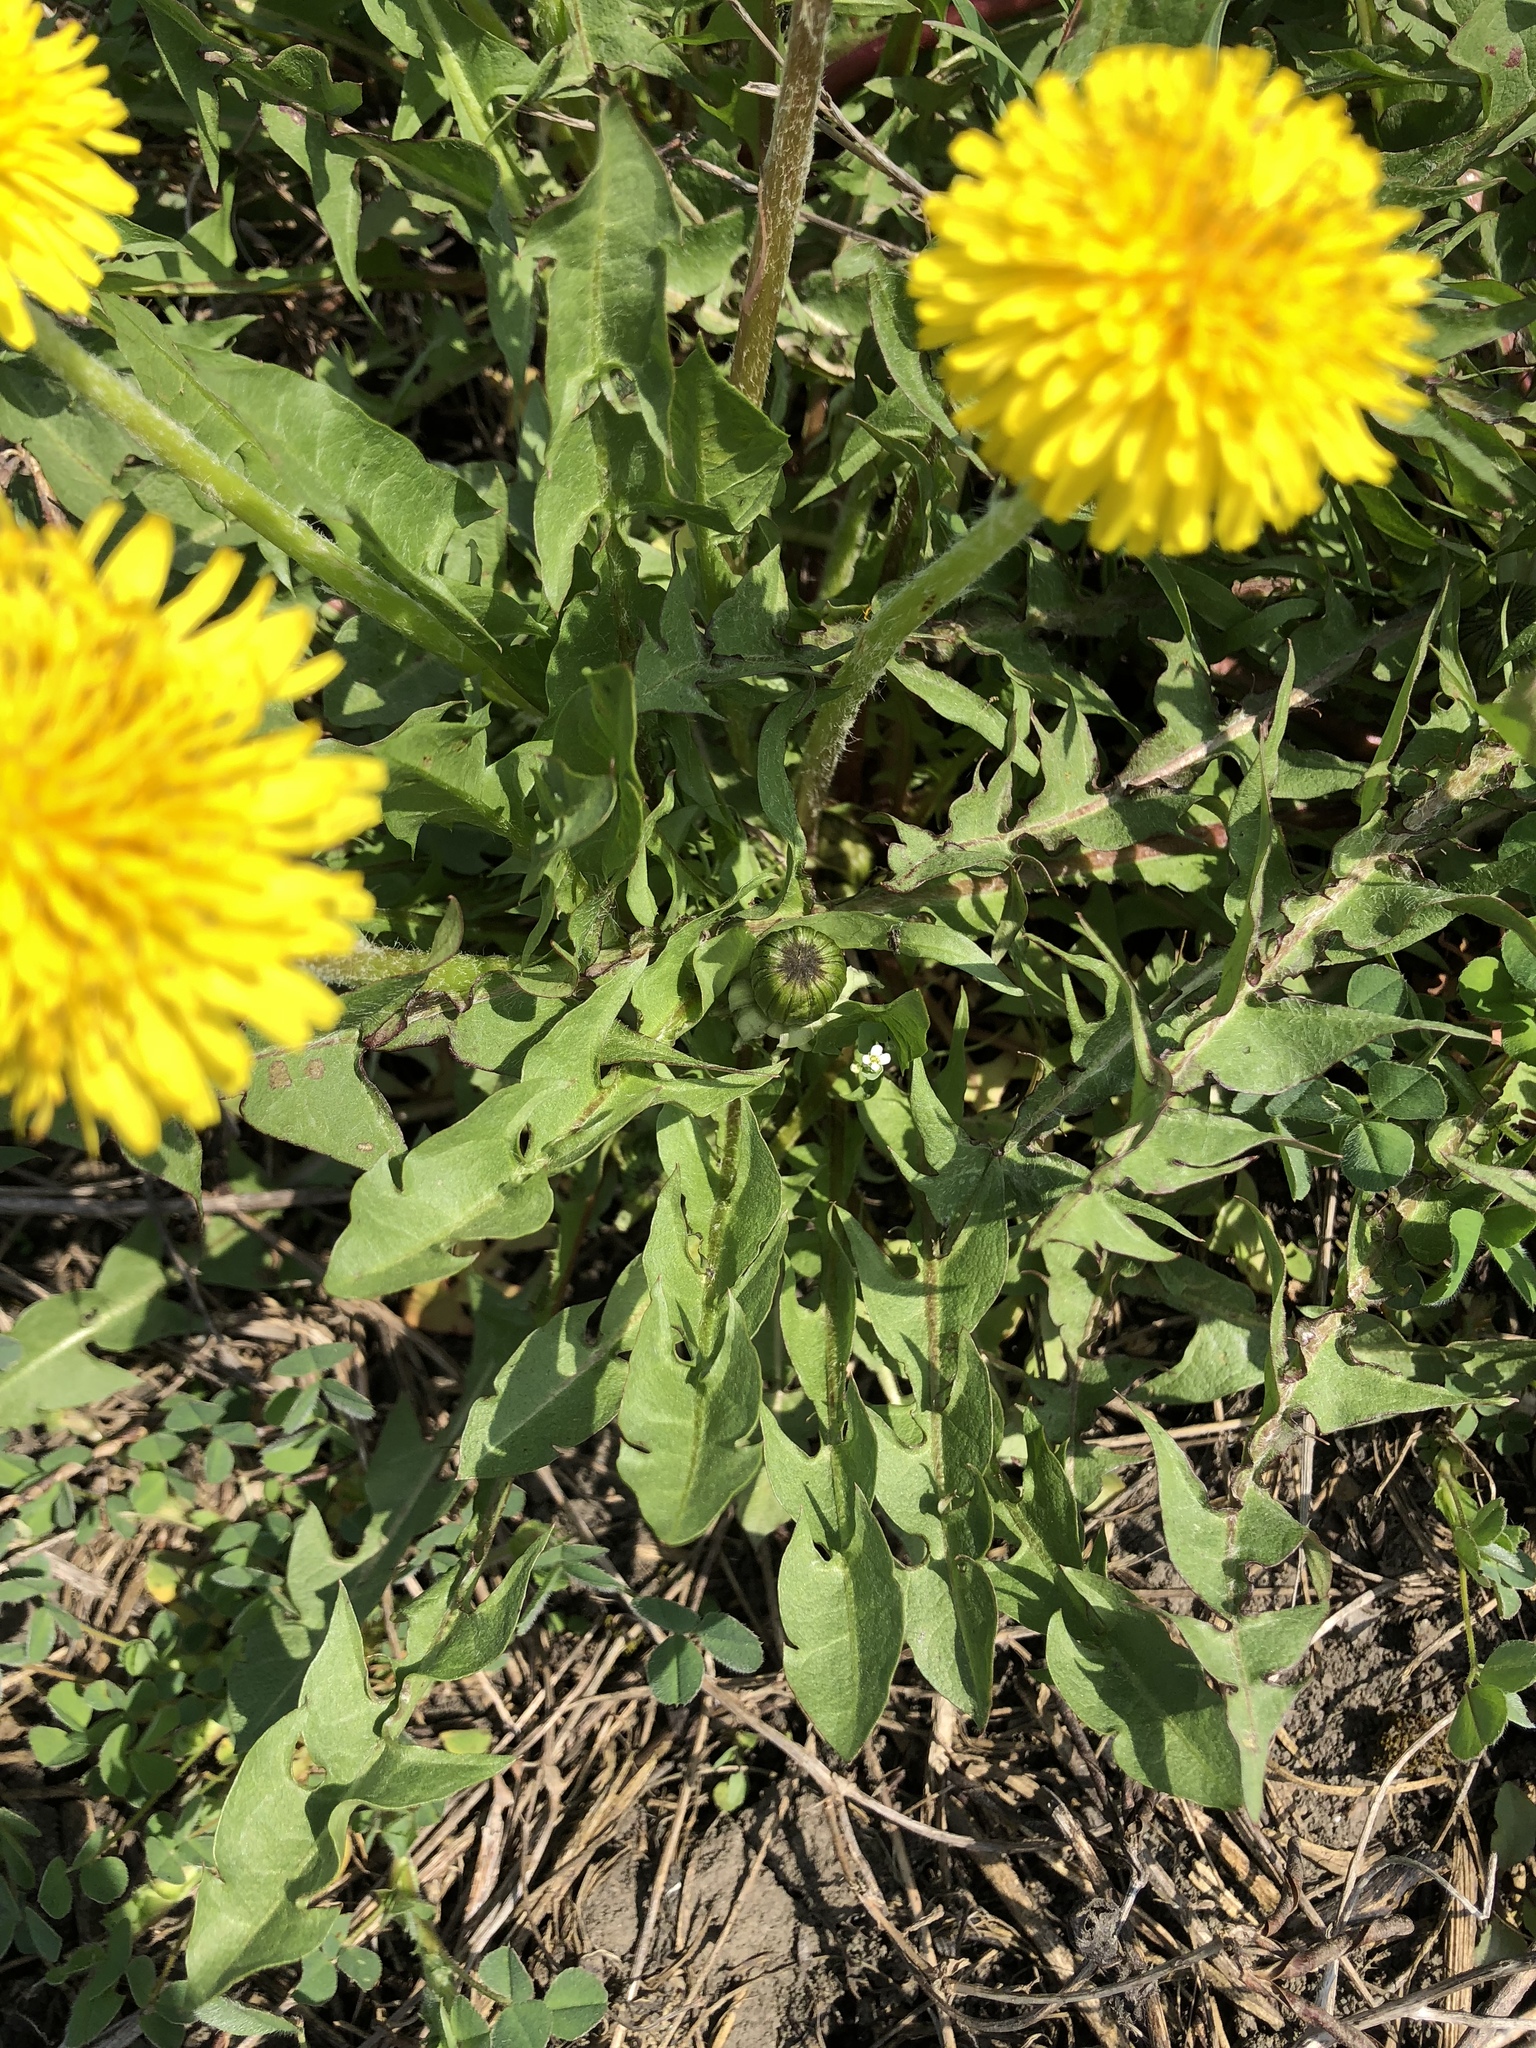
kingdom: Plantae
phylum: Tracheophyta
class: Magnoliopsida
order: Asterales
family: Asteraceae
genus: Taraxacum
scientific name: Taraxacum officinale
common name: Common dandelion
